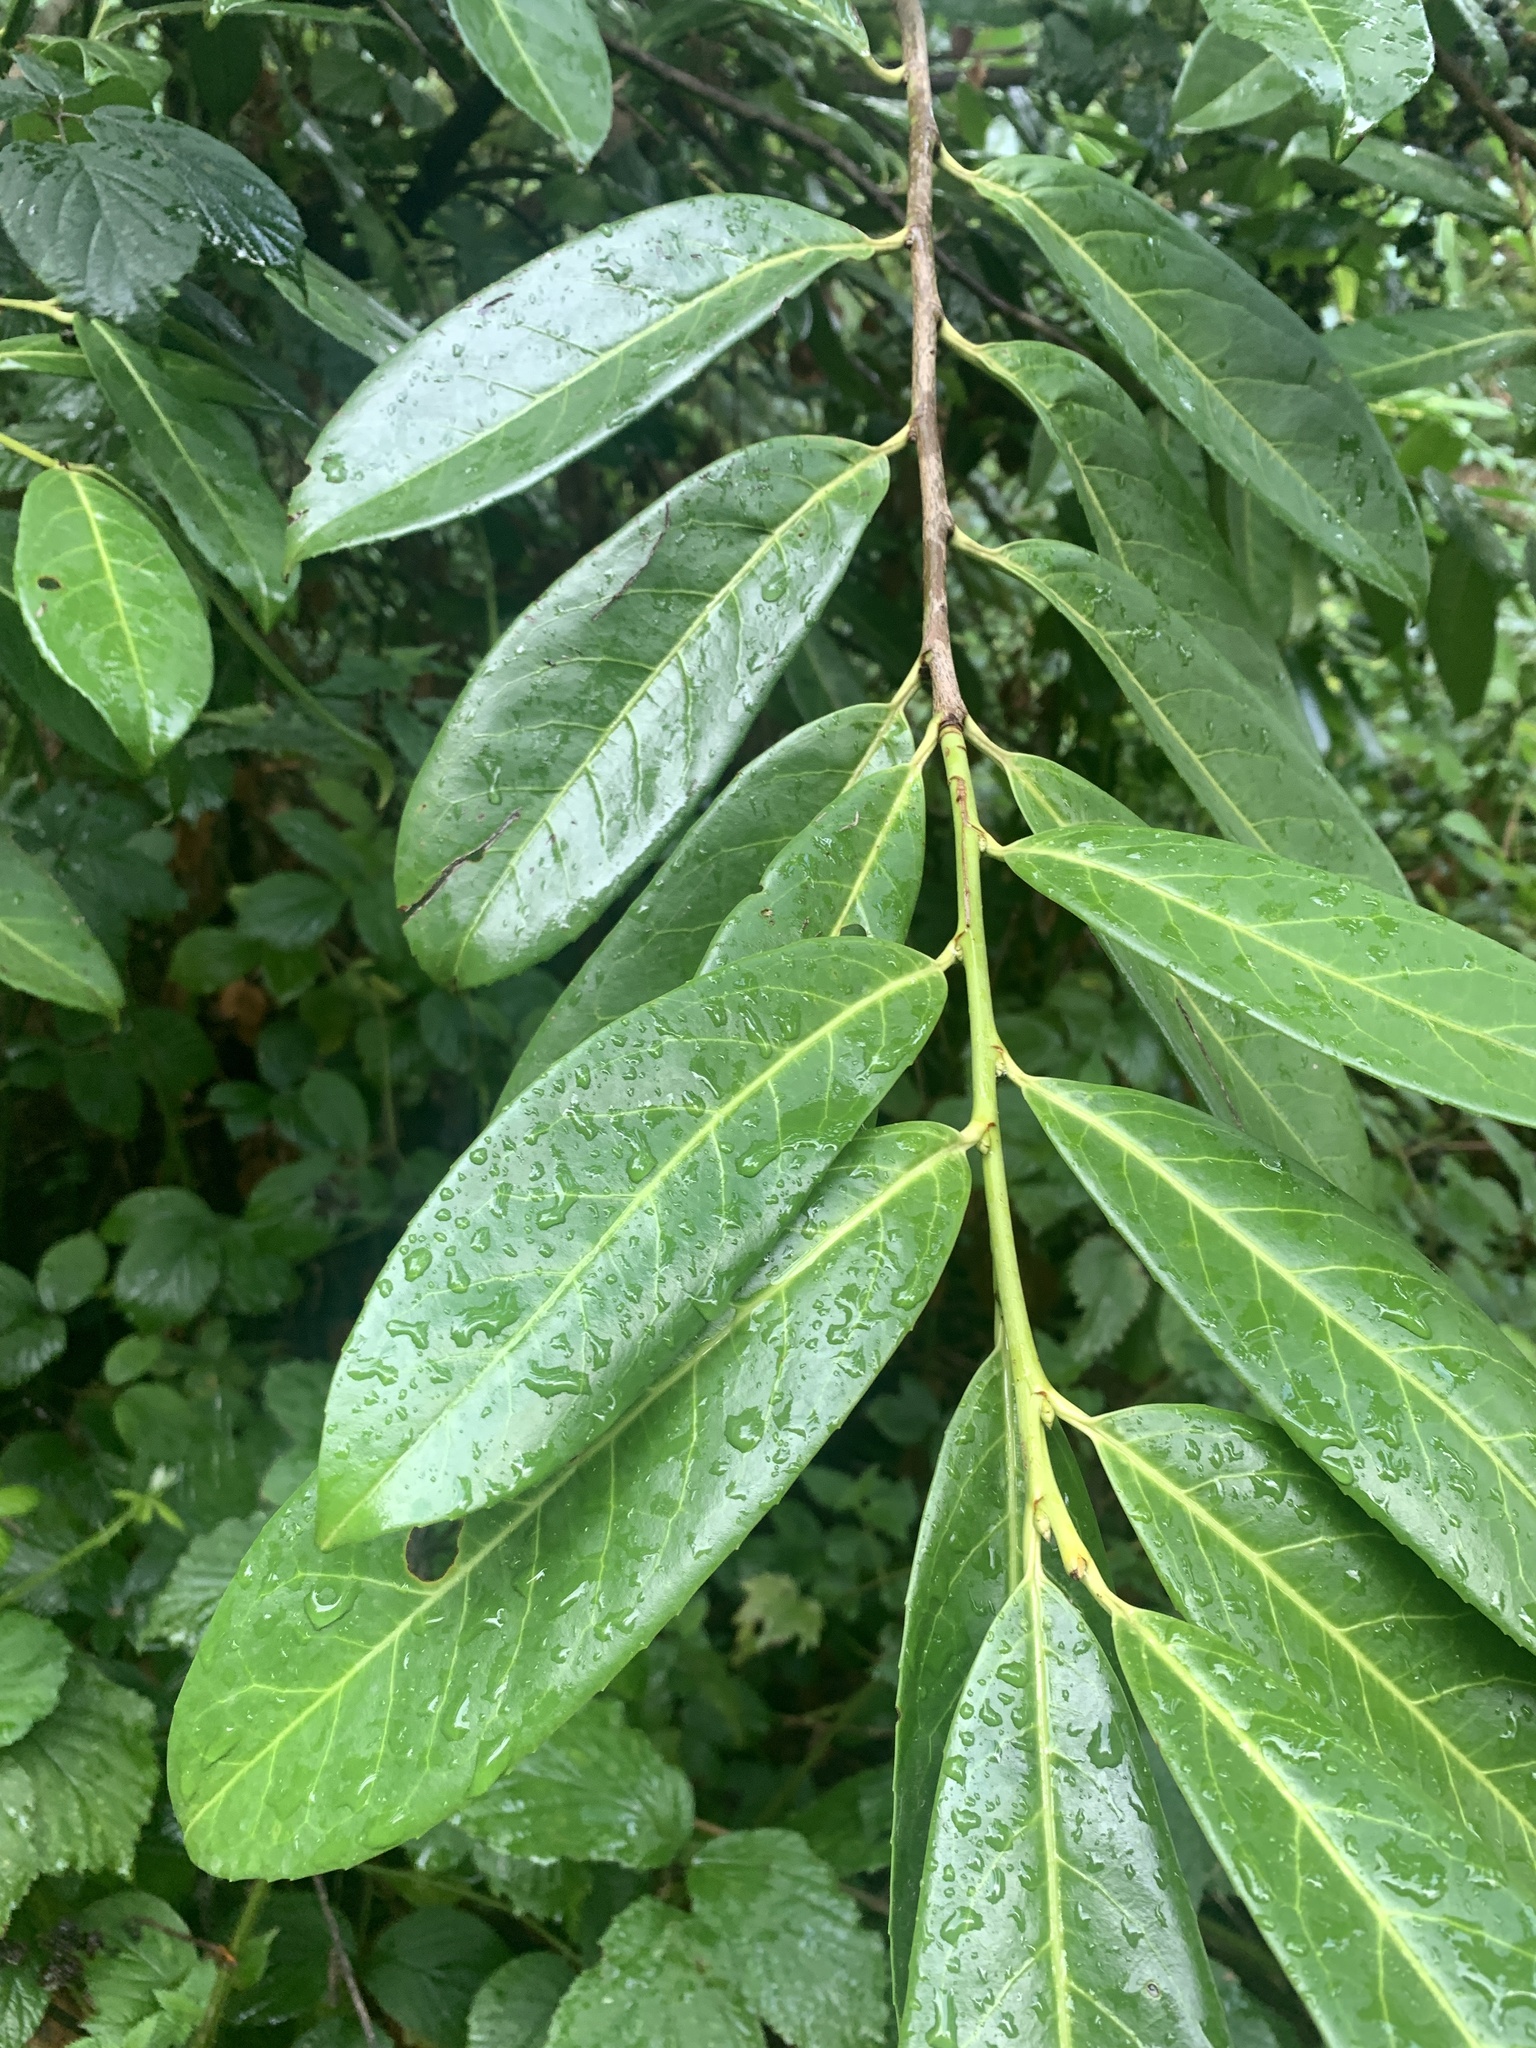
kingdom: Plantae
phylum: Tracheophyta
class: Magnoliopsida
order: Rosales
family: Rosaceae
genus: Prunus
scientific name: Prunus laurocerasus
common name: Cherry laurel
